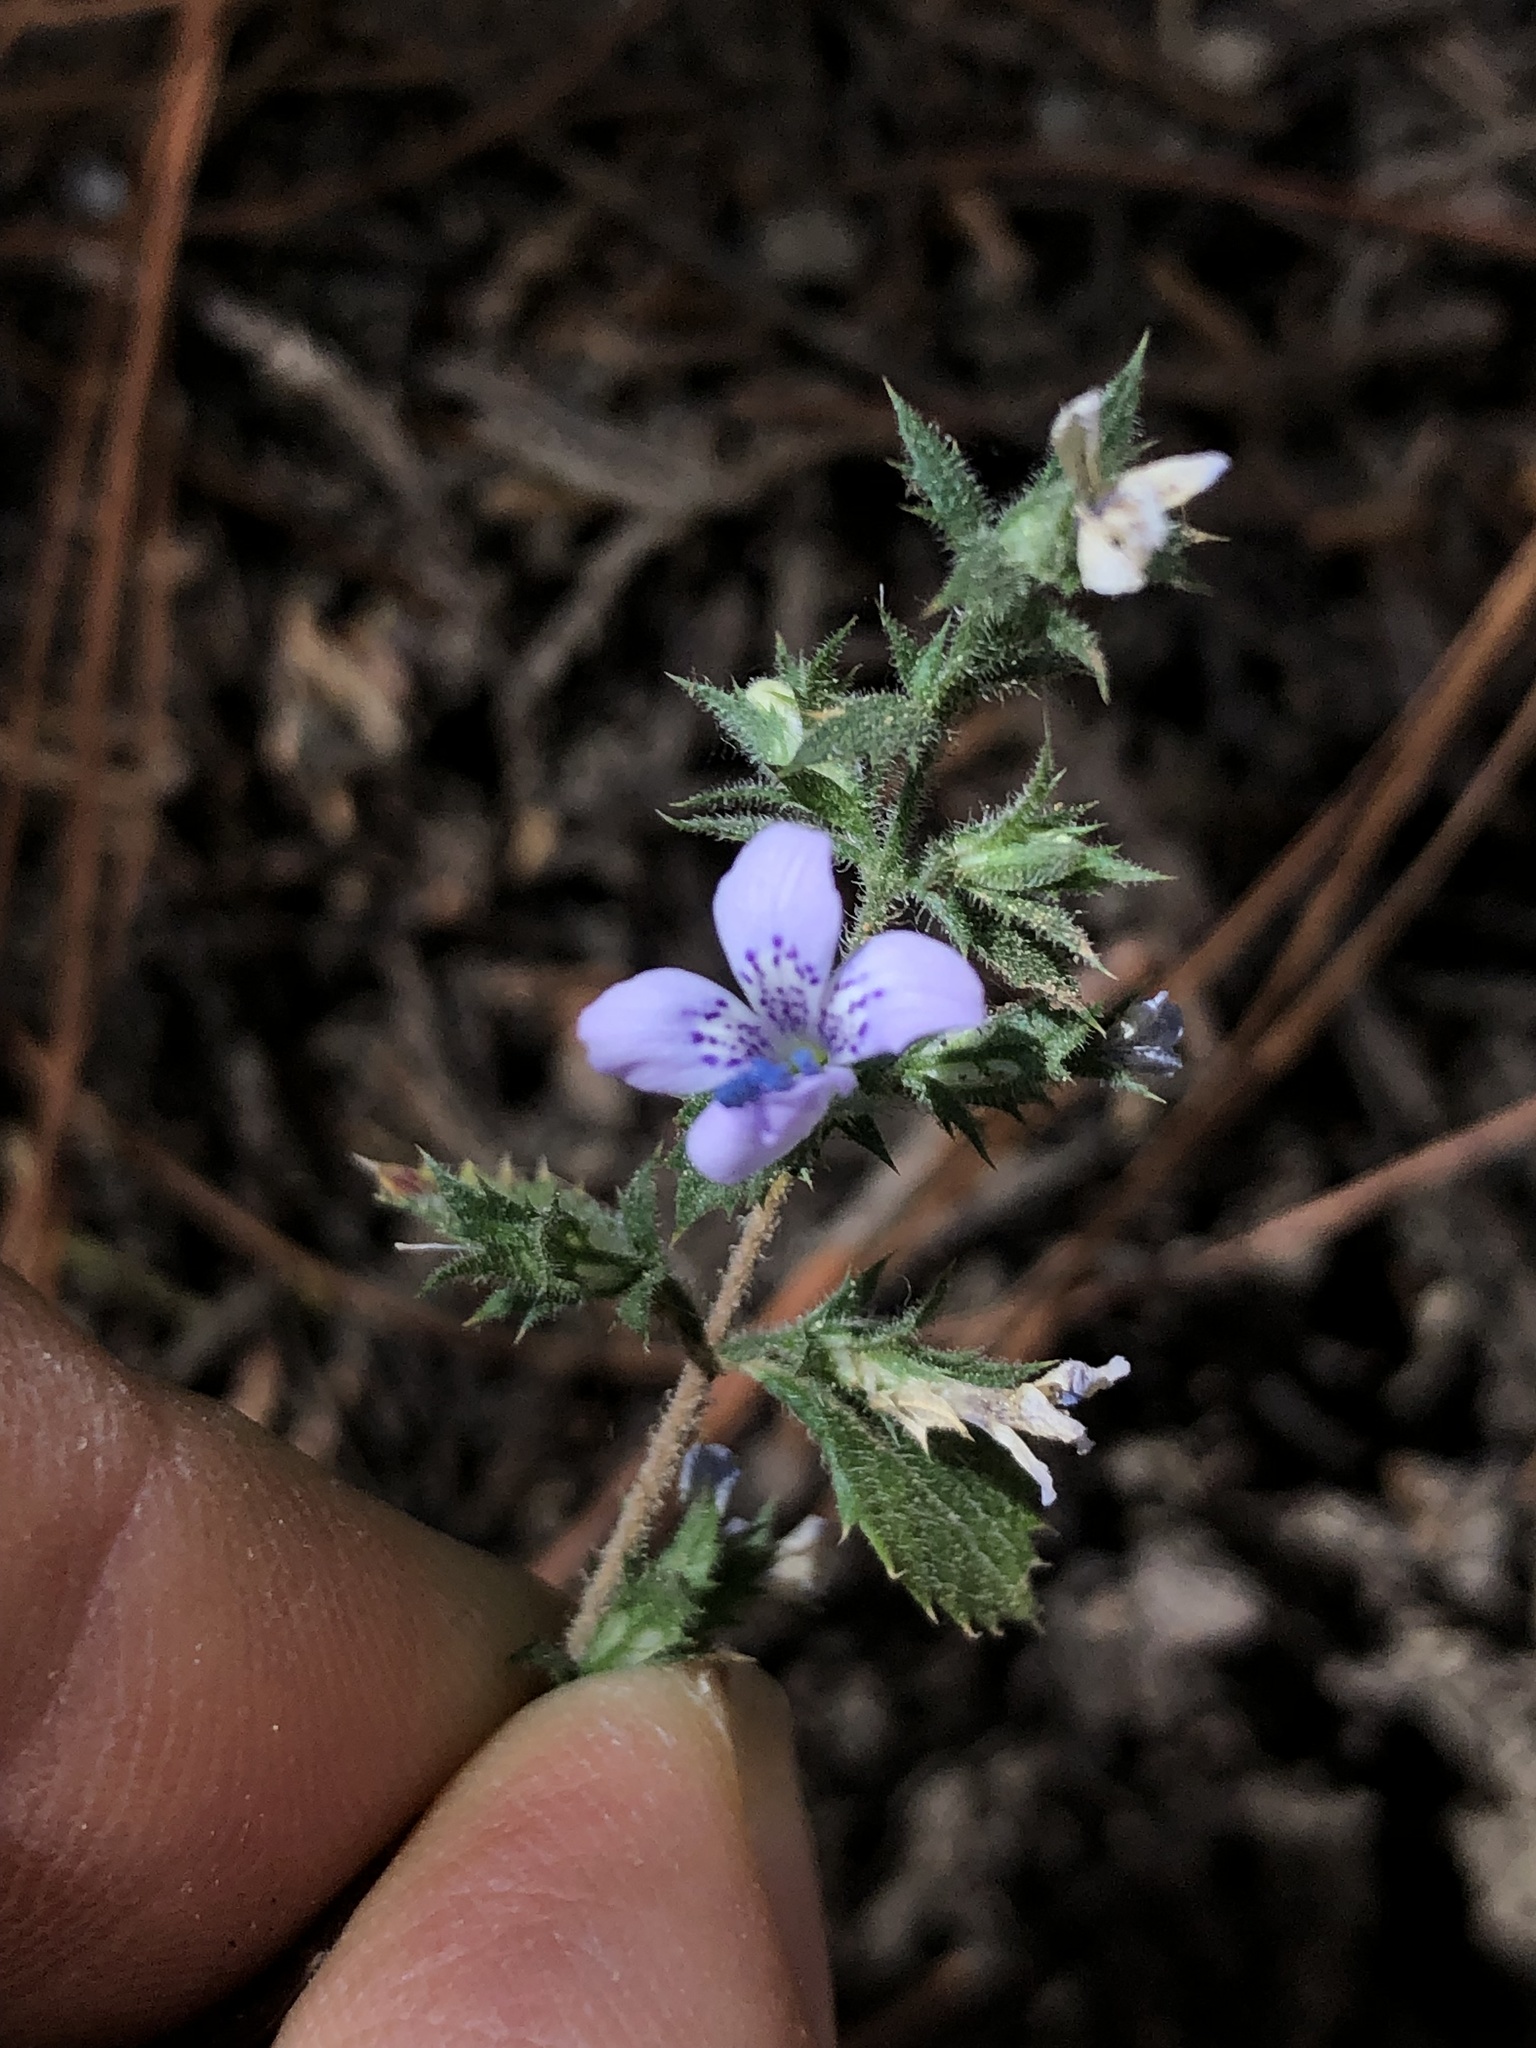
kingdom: Plantae
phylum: Tracheophyta
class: Magnoliopsida
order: Ericales
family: Polemoniaceae
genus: Loeselia
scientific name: Loeselia rupestris
